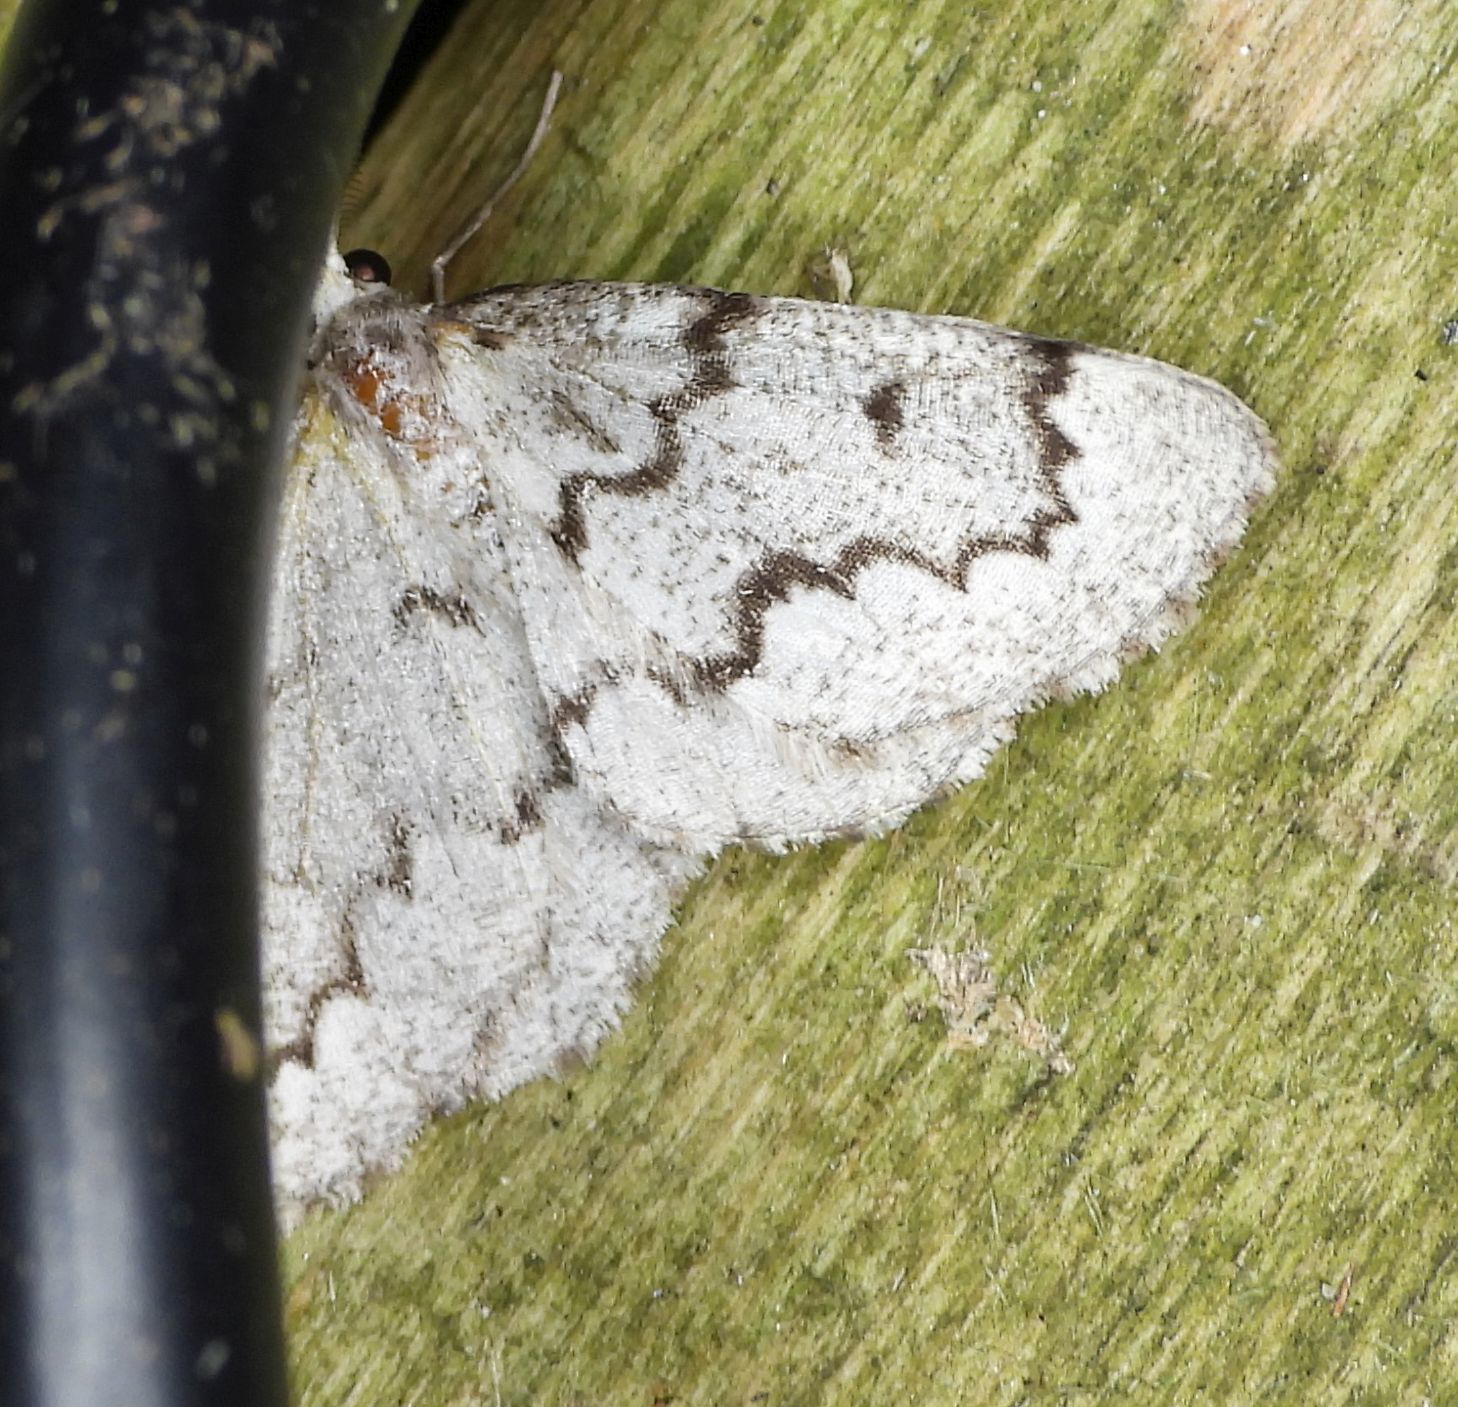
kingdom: Animalia
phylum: Arthropoda
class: Insecta
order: Lepidoptera
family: Geometridae
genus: Nepytia
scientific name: Nepytia canosaria
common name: False hemlock looper
